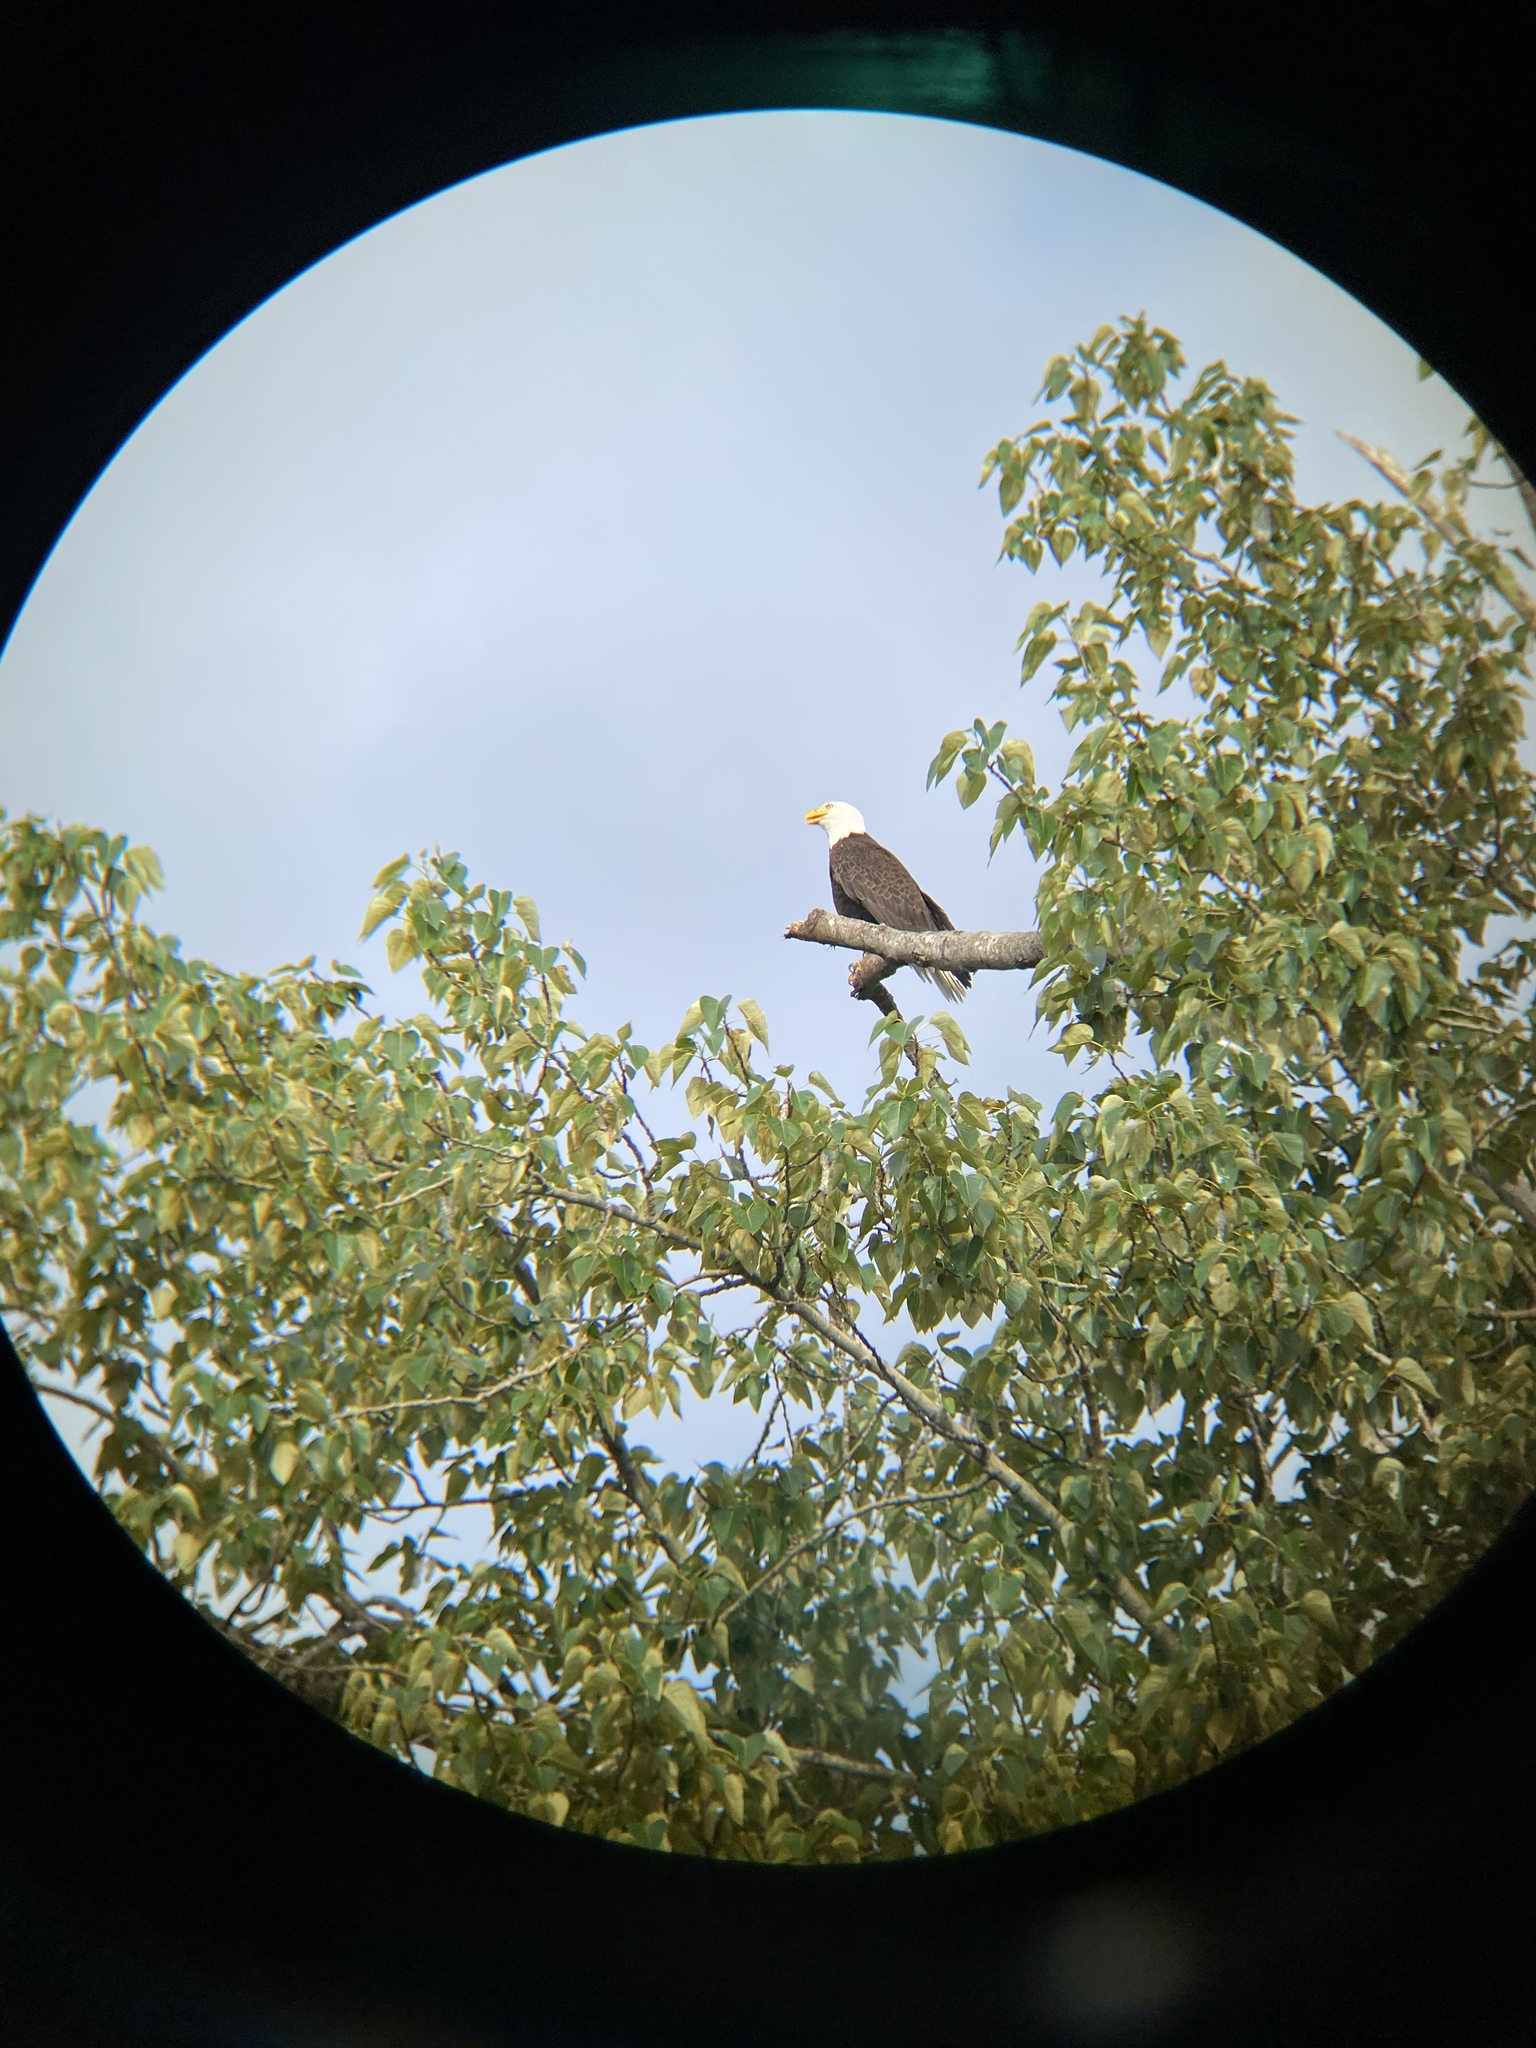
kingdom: Animalia
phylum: Chordata
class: Aves
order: Accipitriformes
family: Accipitridae
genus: Haliaeetus
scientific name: Haliaeetus leucocephalus
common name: Bald eagle
